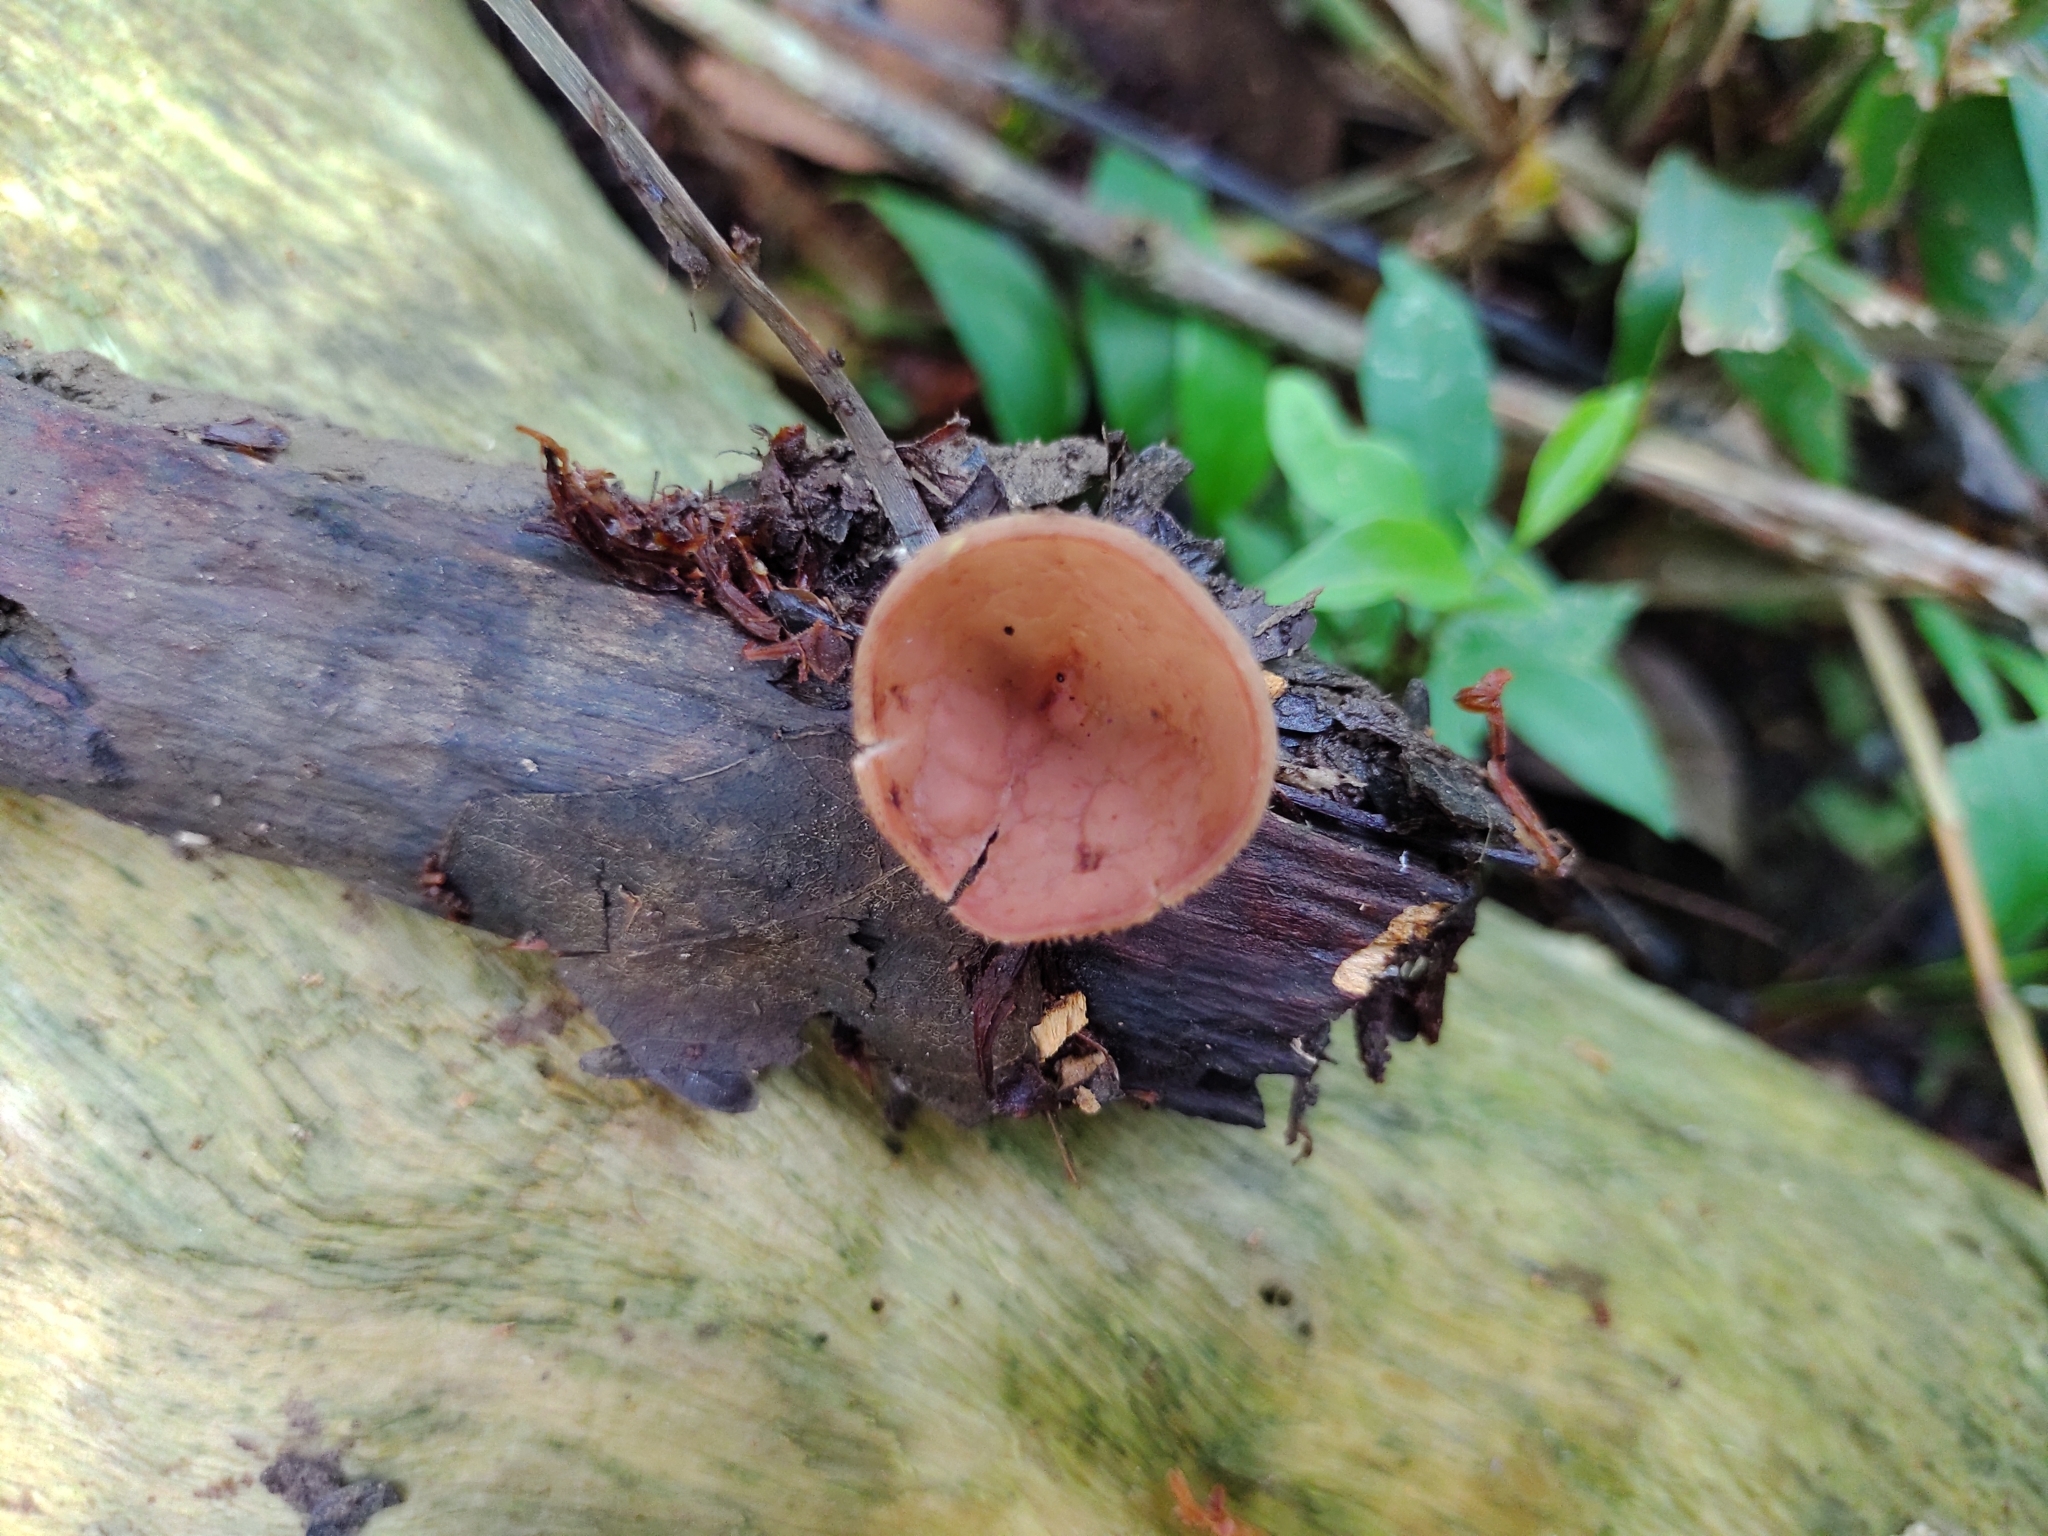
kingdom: Fungi
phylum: Ascomycota
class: Pezizomycetes
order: Pezizales
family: Sarcoscyphaceae
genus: Cookeina
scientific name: Cookeina speciosa
